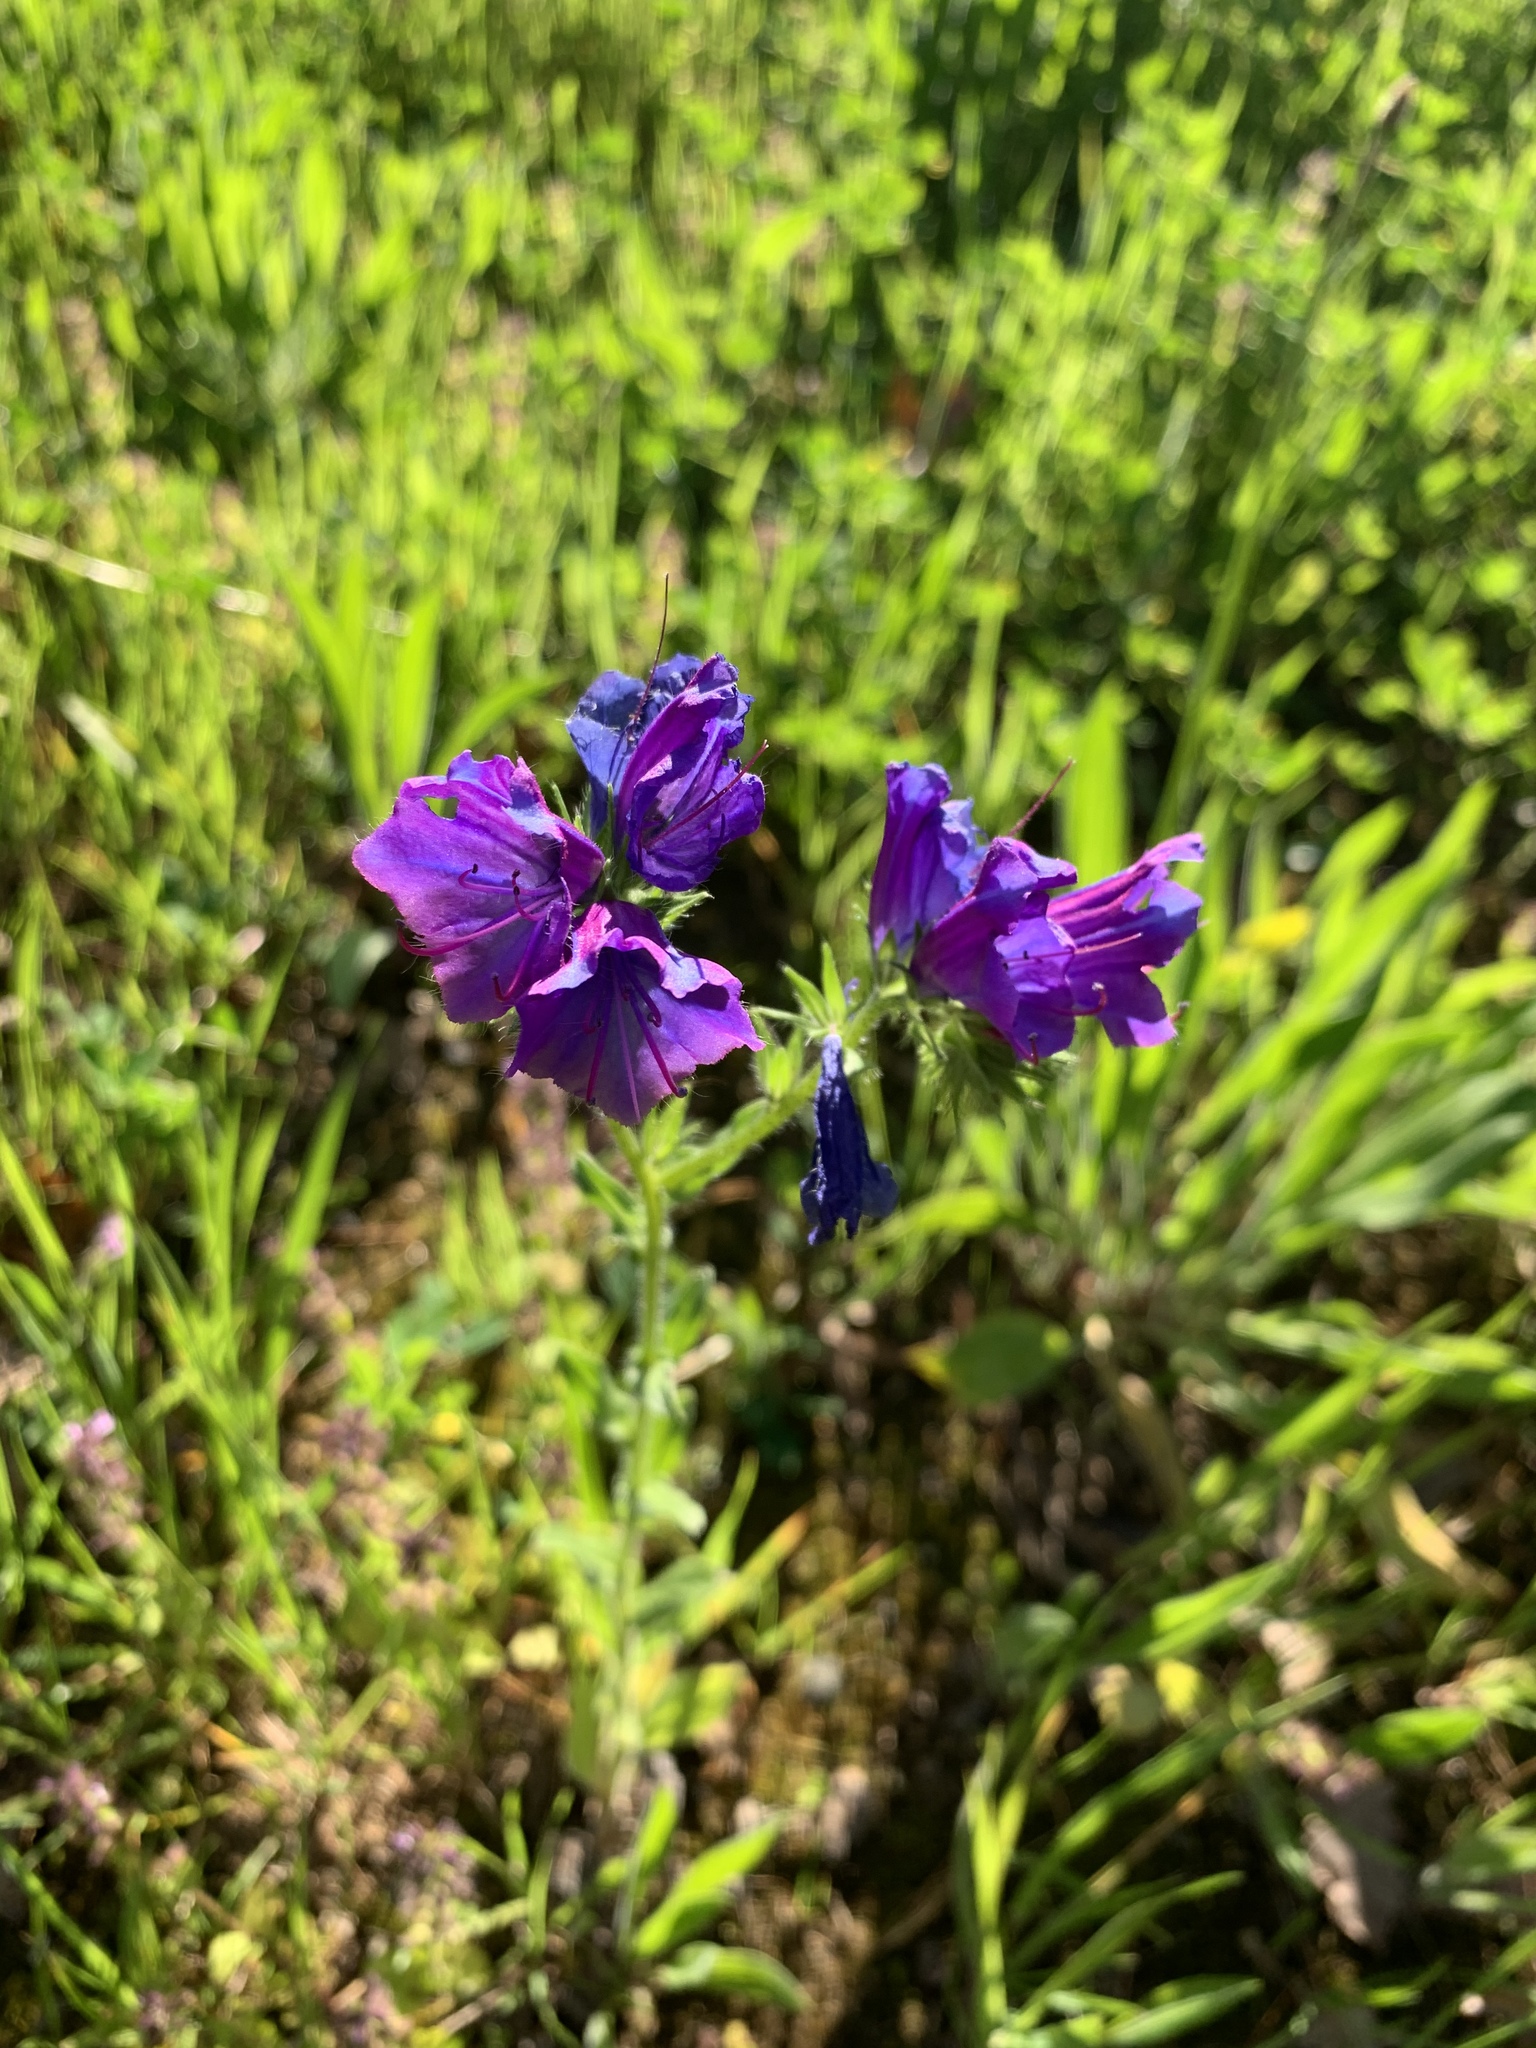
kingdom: Plantae
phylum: Tracheophyta
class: Magnoliopsida
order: Boraginales
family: Boraginaceae
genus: Echium
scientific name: Echium plantagineum
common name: Purple viper's-bugloss
